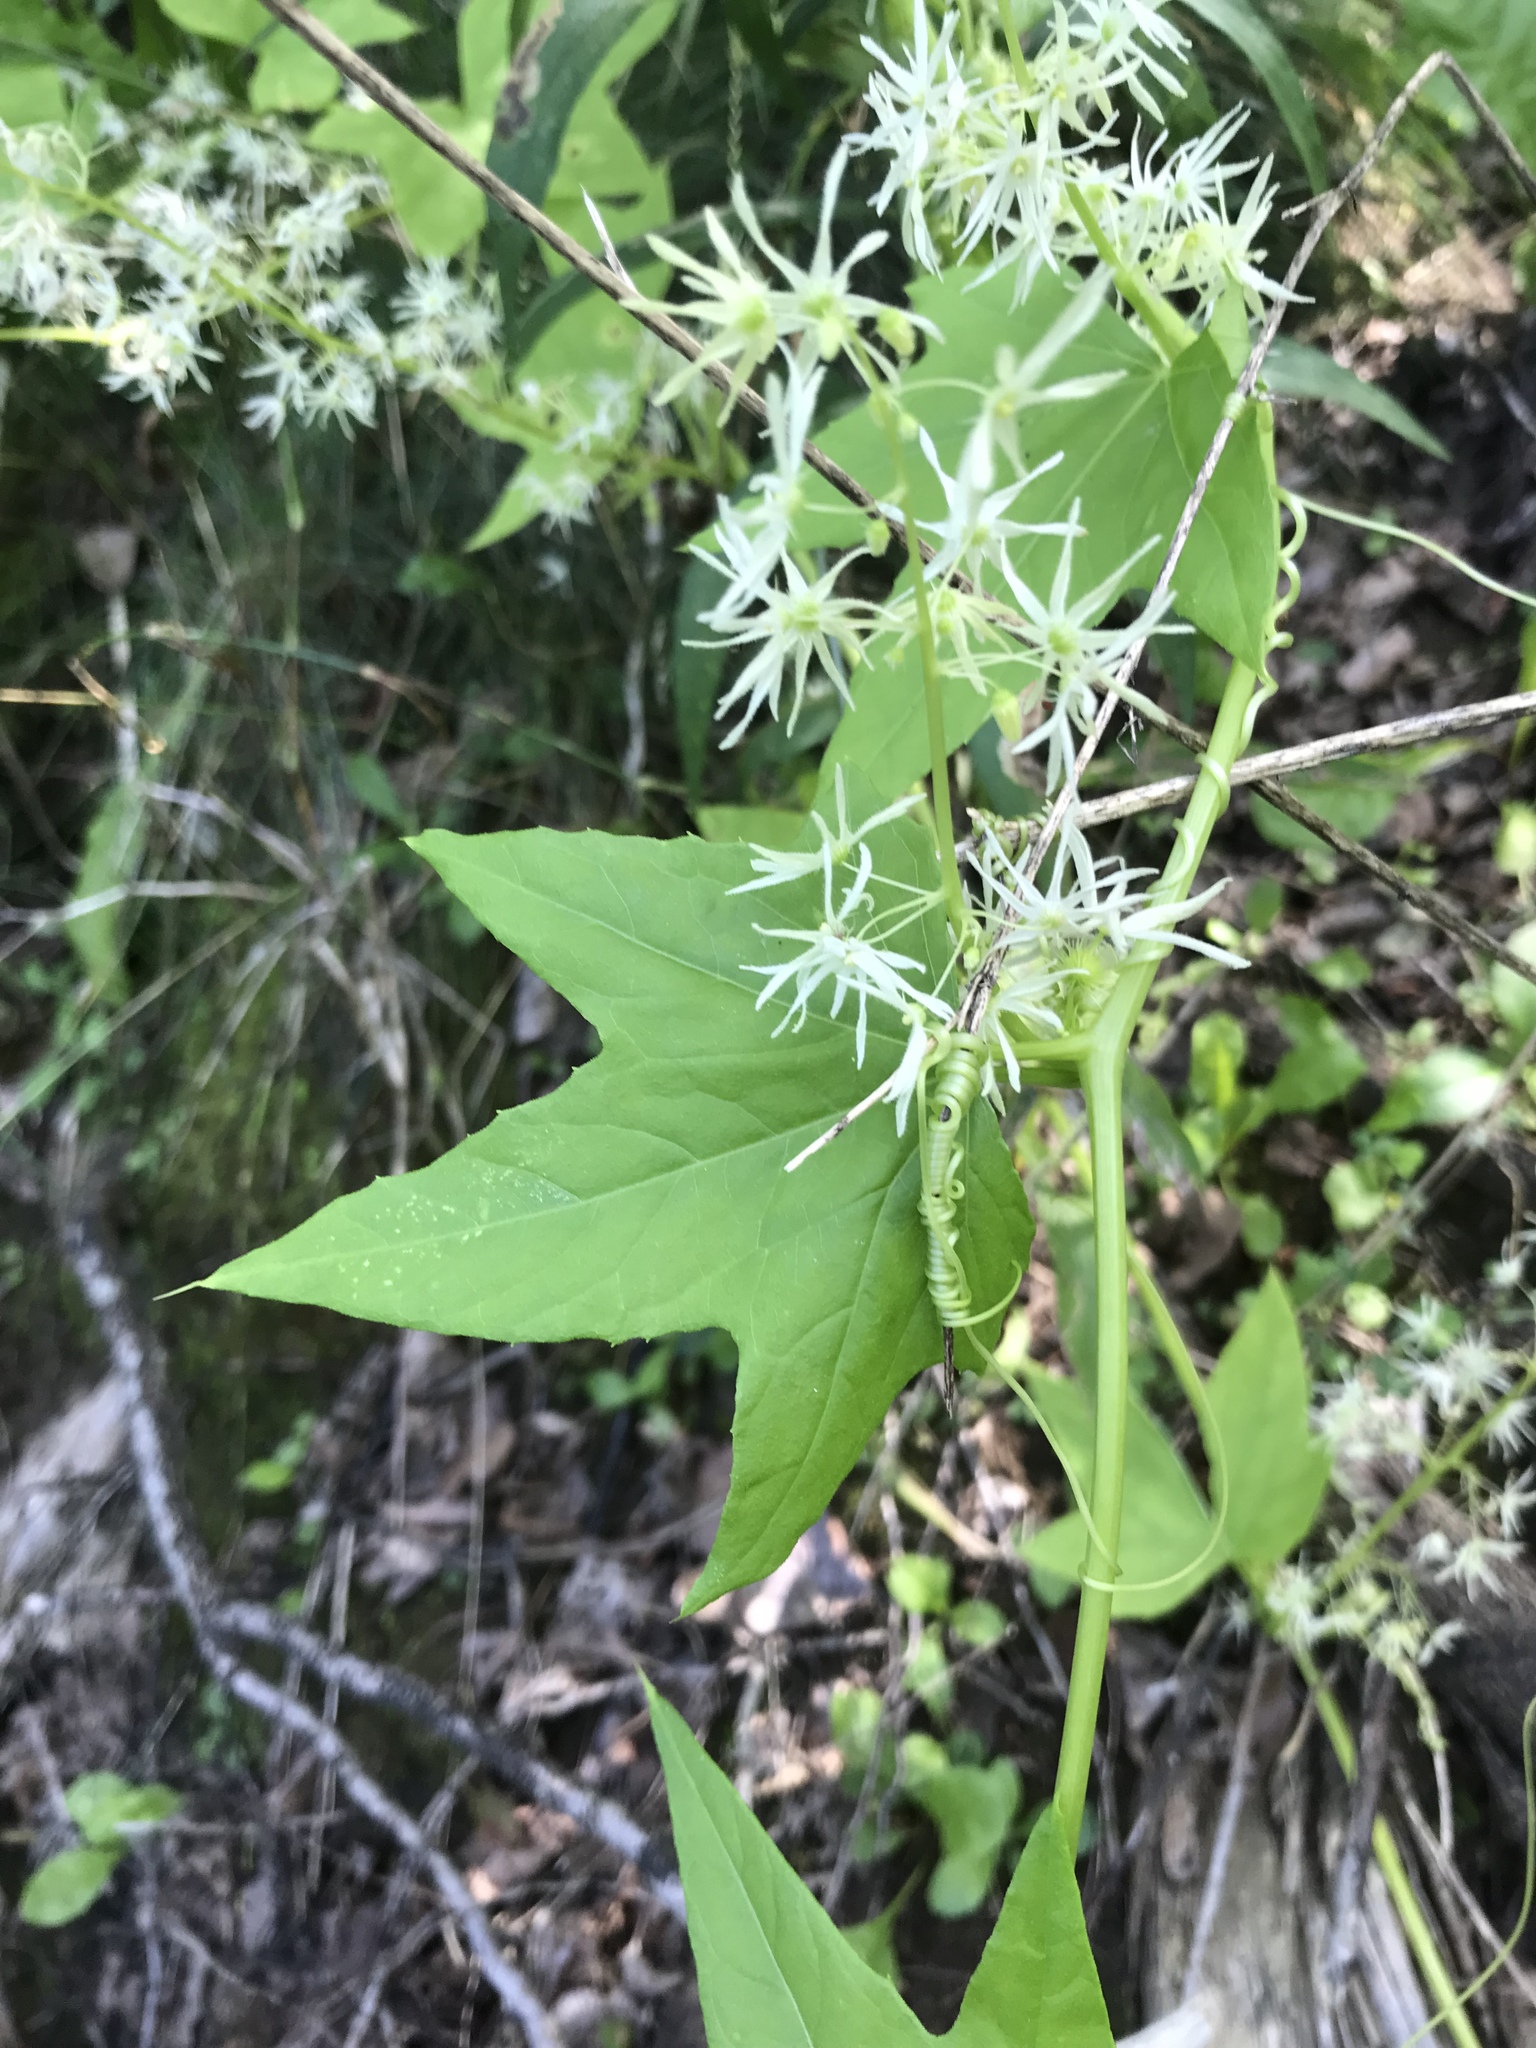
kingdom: Plantae
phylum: Tracheophyta
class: Magnoliopsida
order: Cucurbitales
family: Cucurbitaceae
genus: Echinocystis
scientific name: Echinocystis lobata
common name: Wild cucumber
